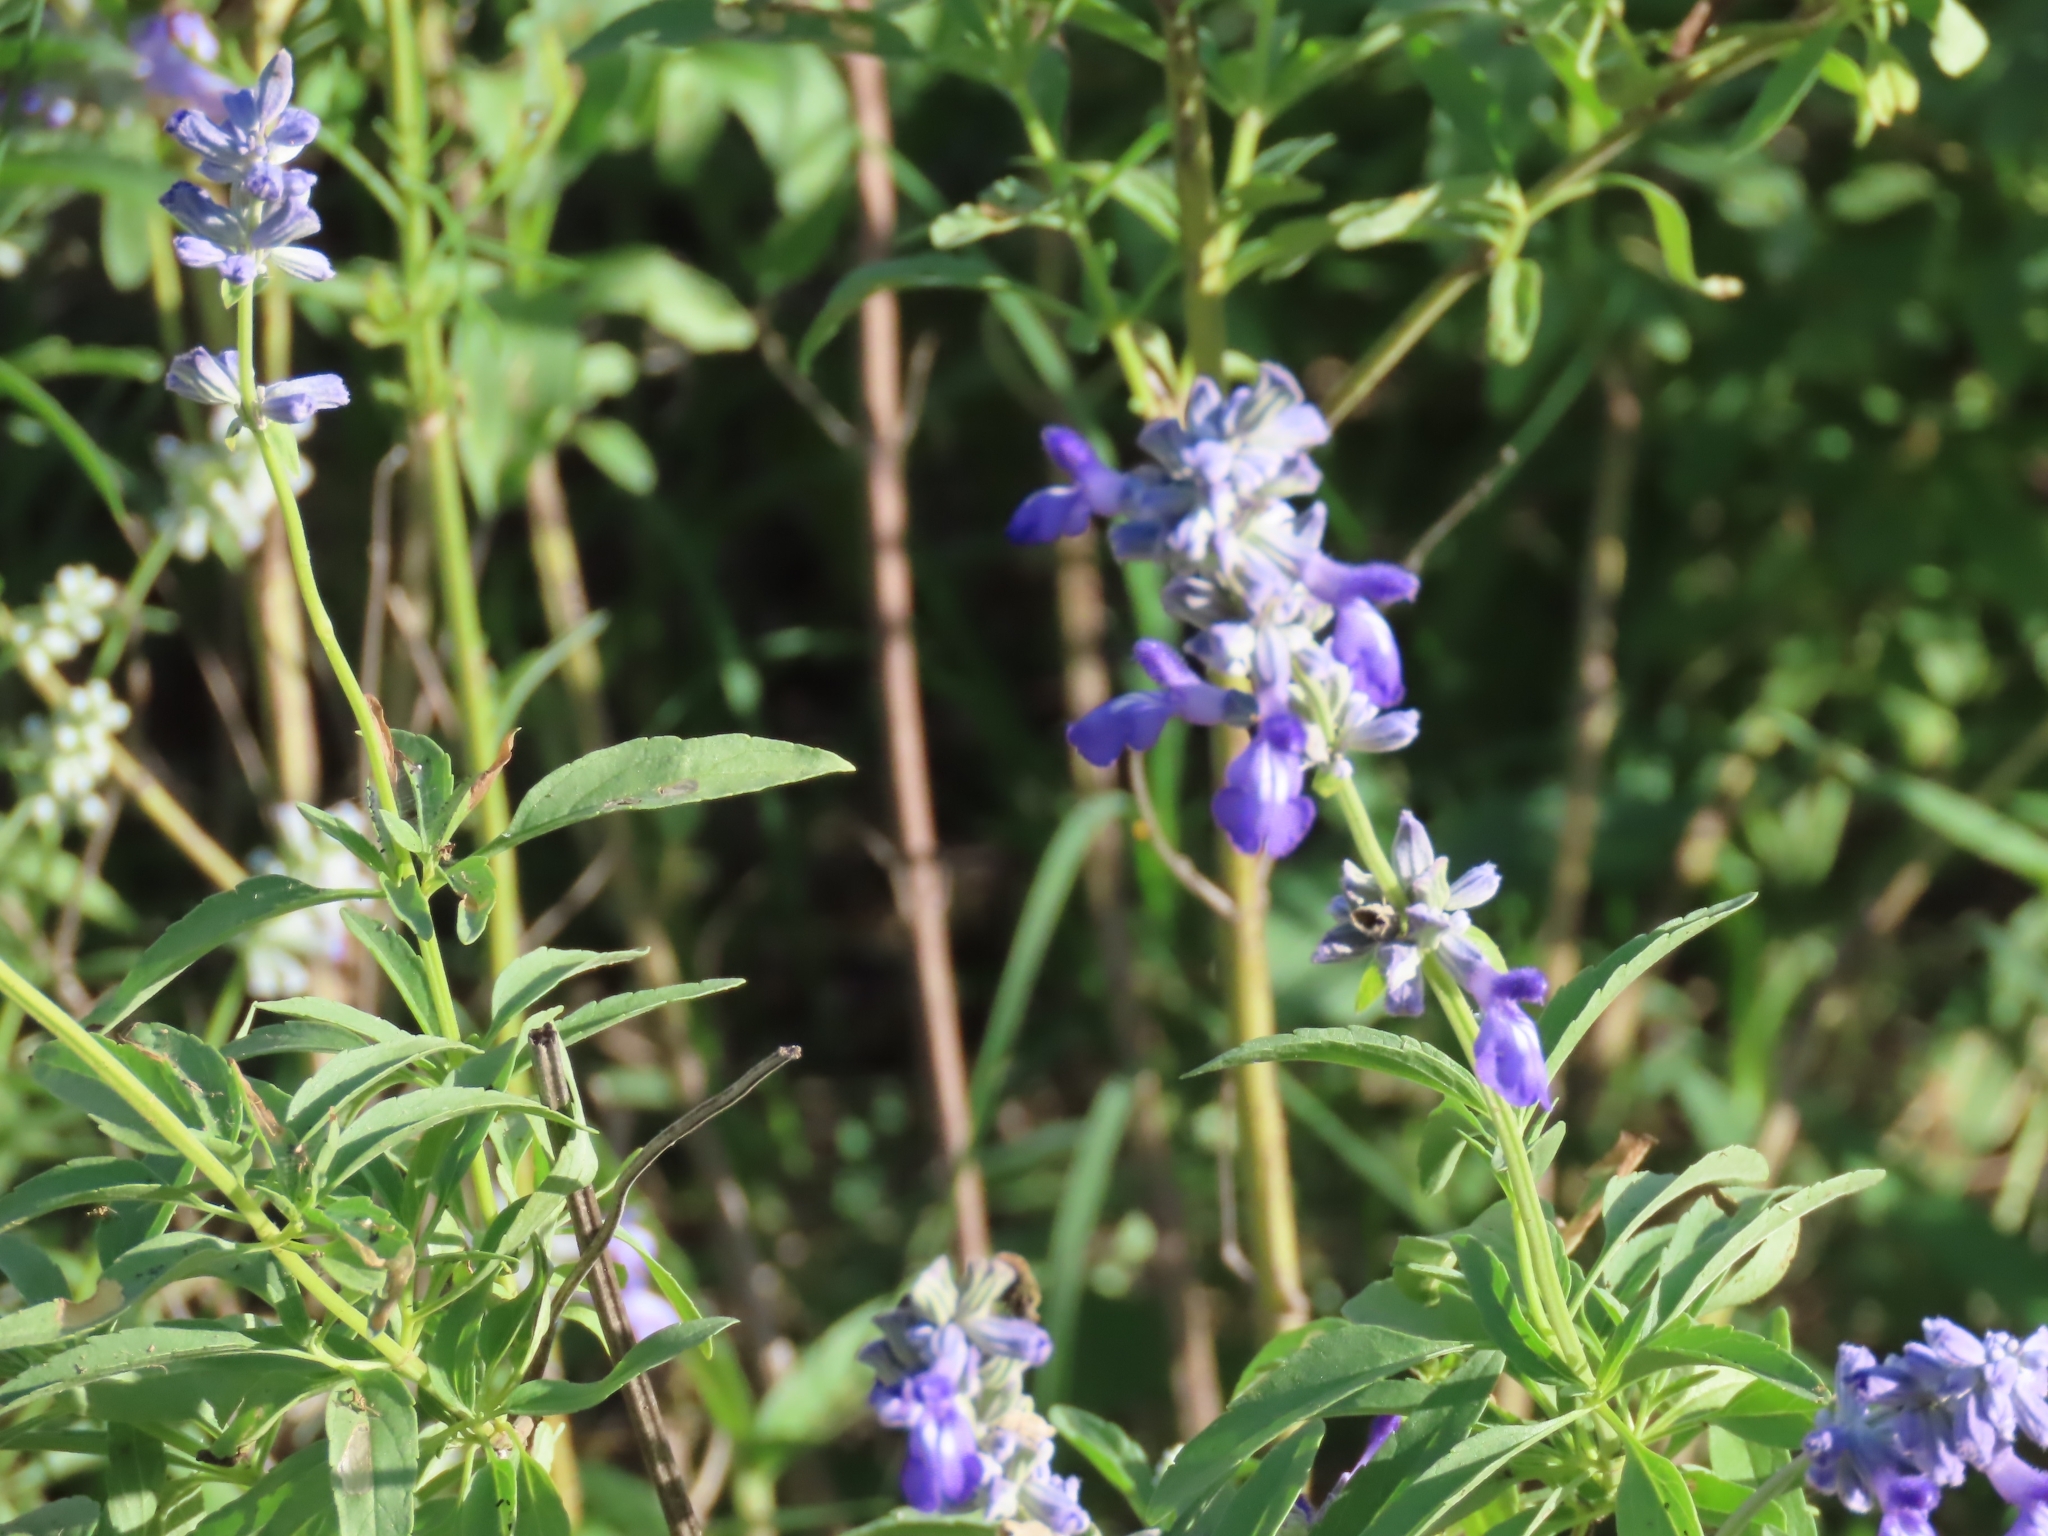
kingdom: Plantae
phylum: Tracheophyta
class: Magnoliopsida
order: Lamiales
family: Lamiaceae
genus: Salvia
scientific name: Salvia farinacea
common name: Mealy sage
